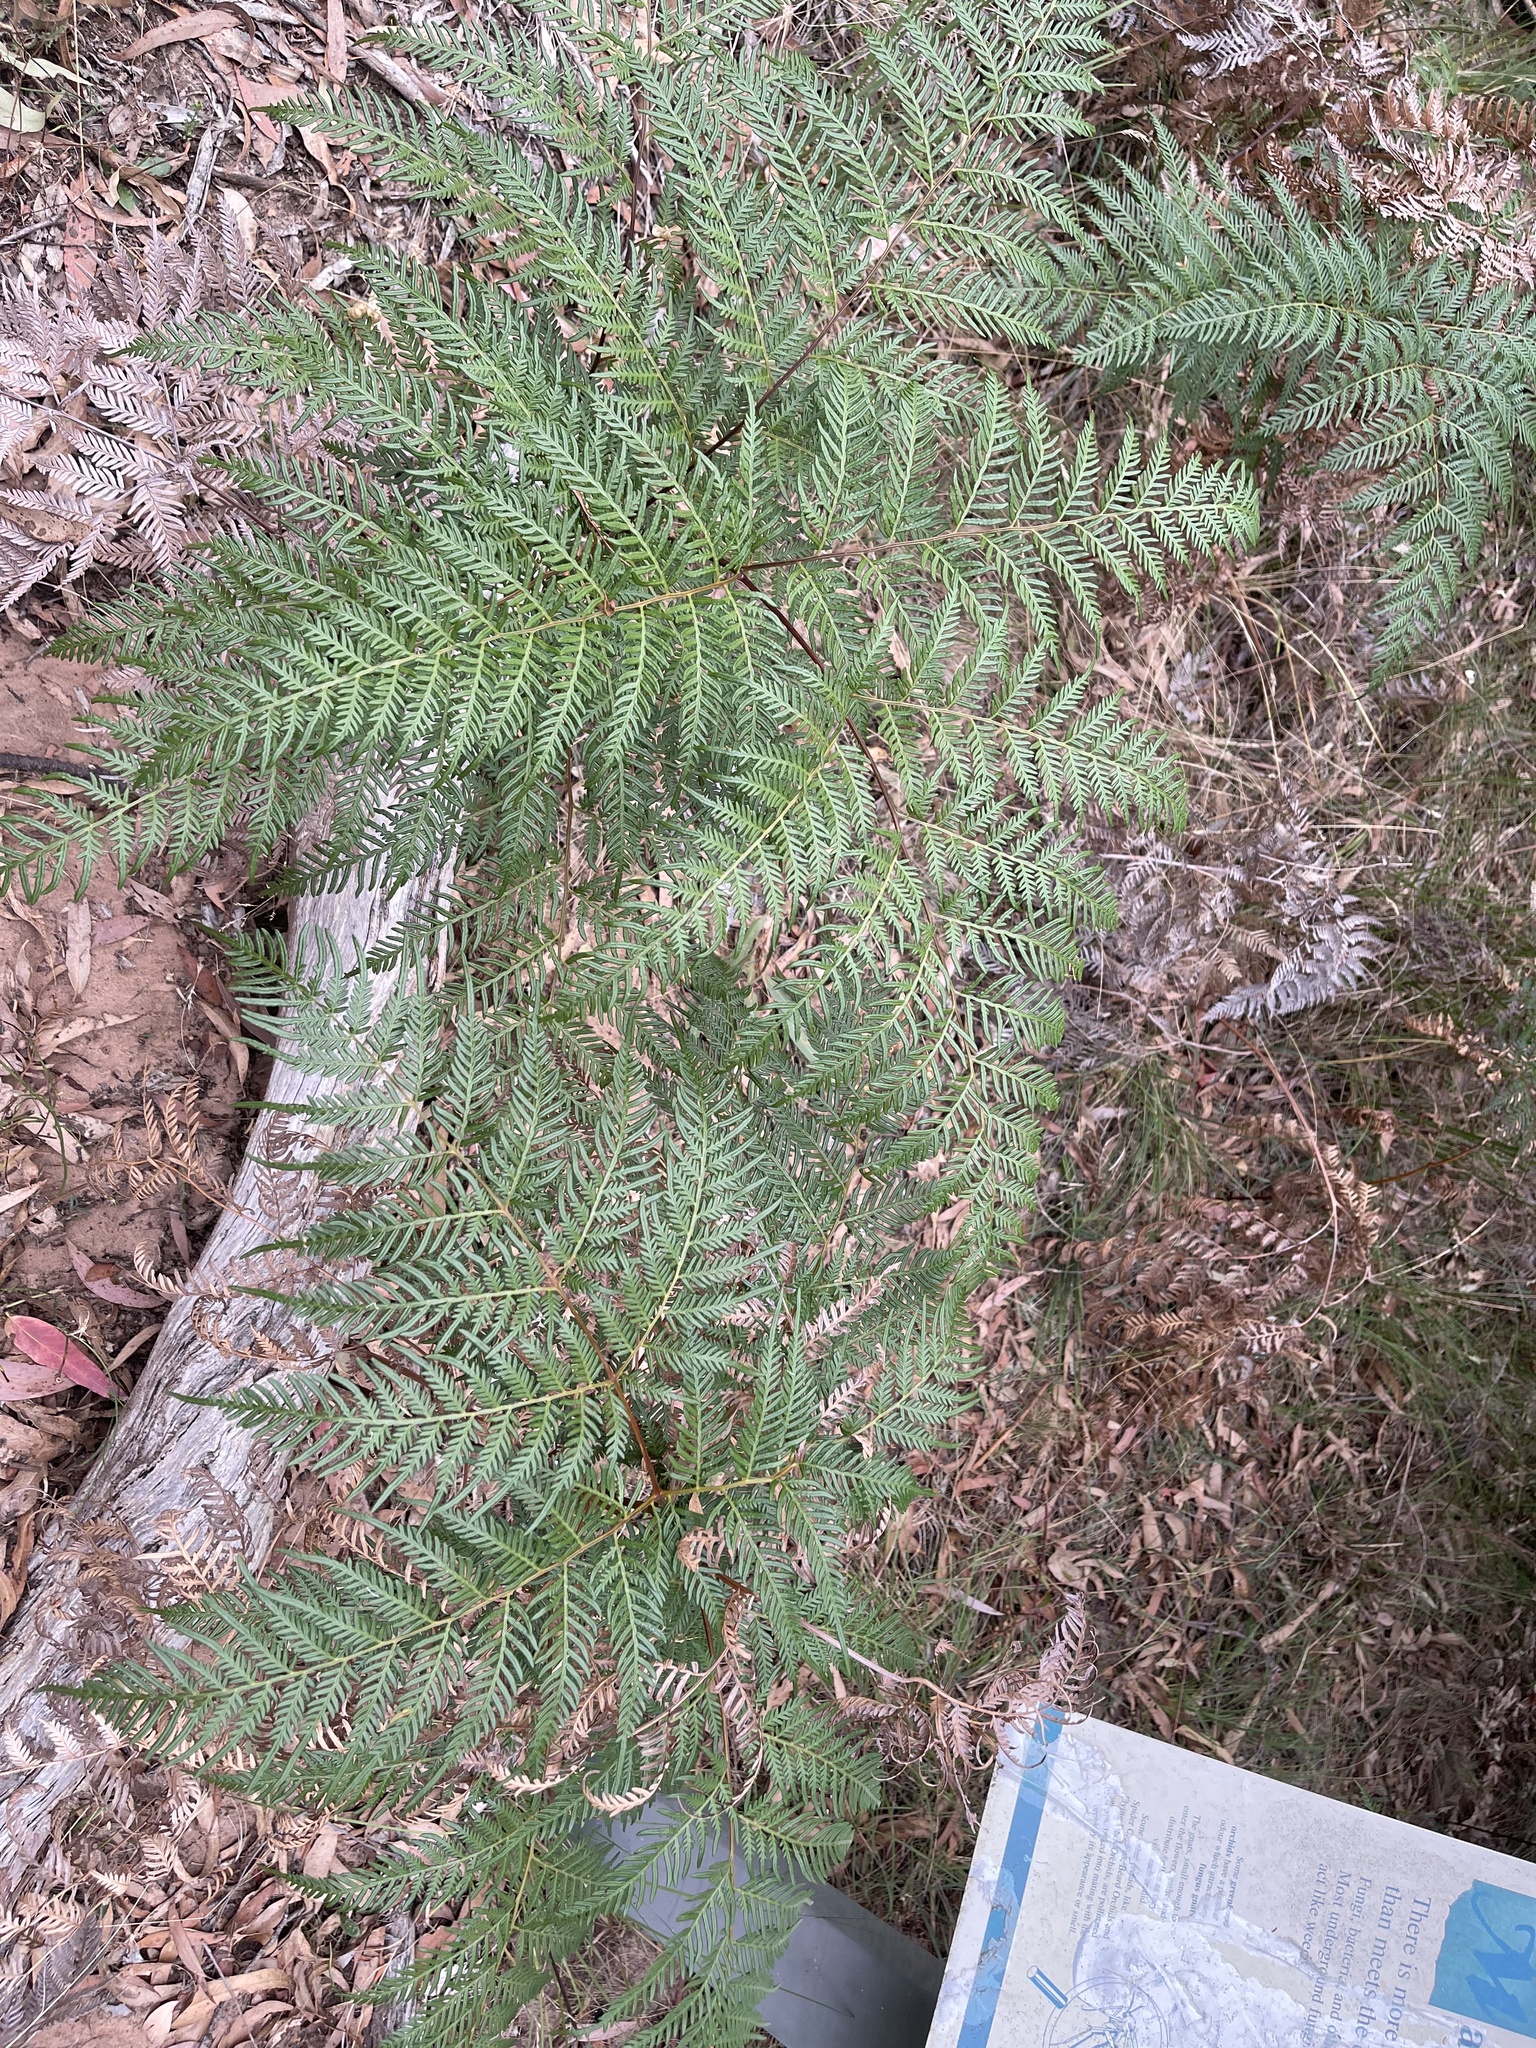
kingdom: Plantae
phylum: Tracheophyta
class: Polypodiopsida
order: Polypodiales
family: Dennstaedtiaceae
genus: Pteridium
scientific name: Pteridium esculentum
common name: Bracken fern
